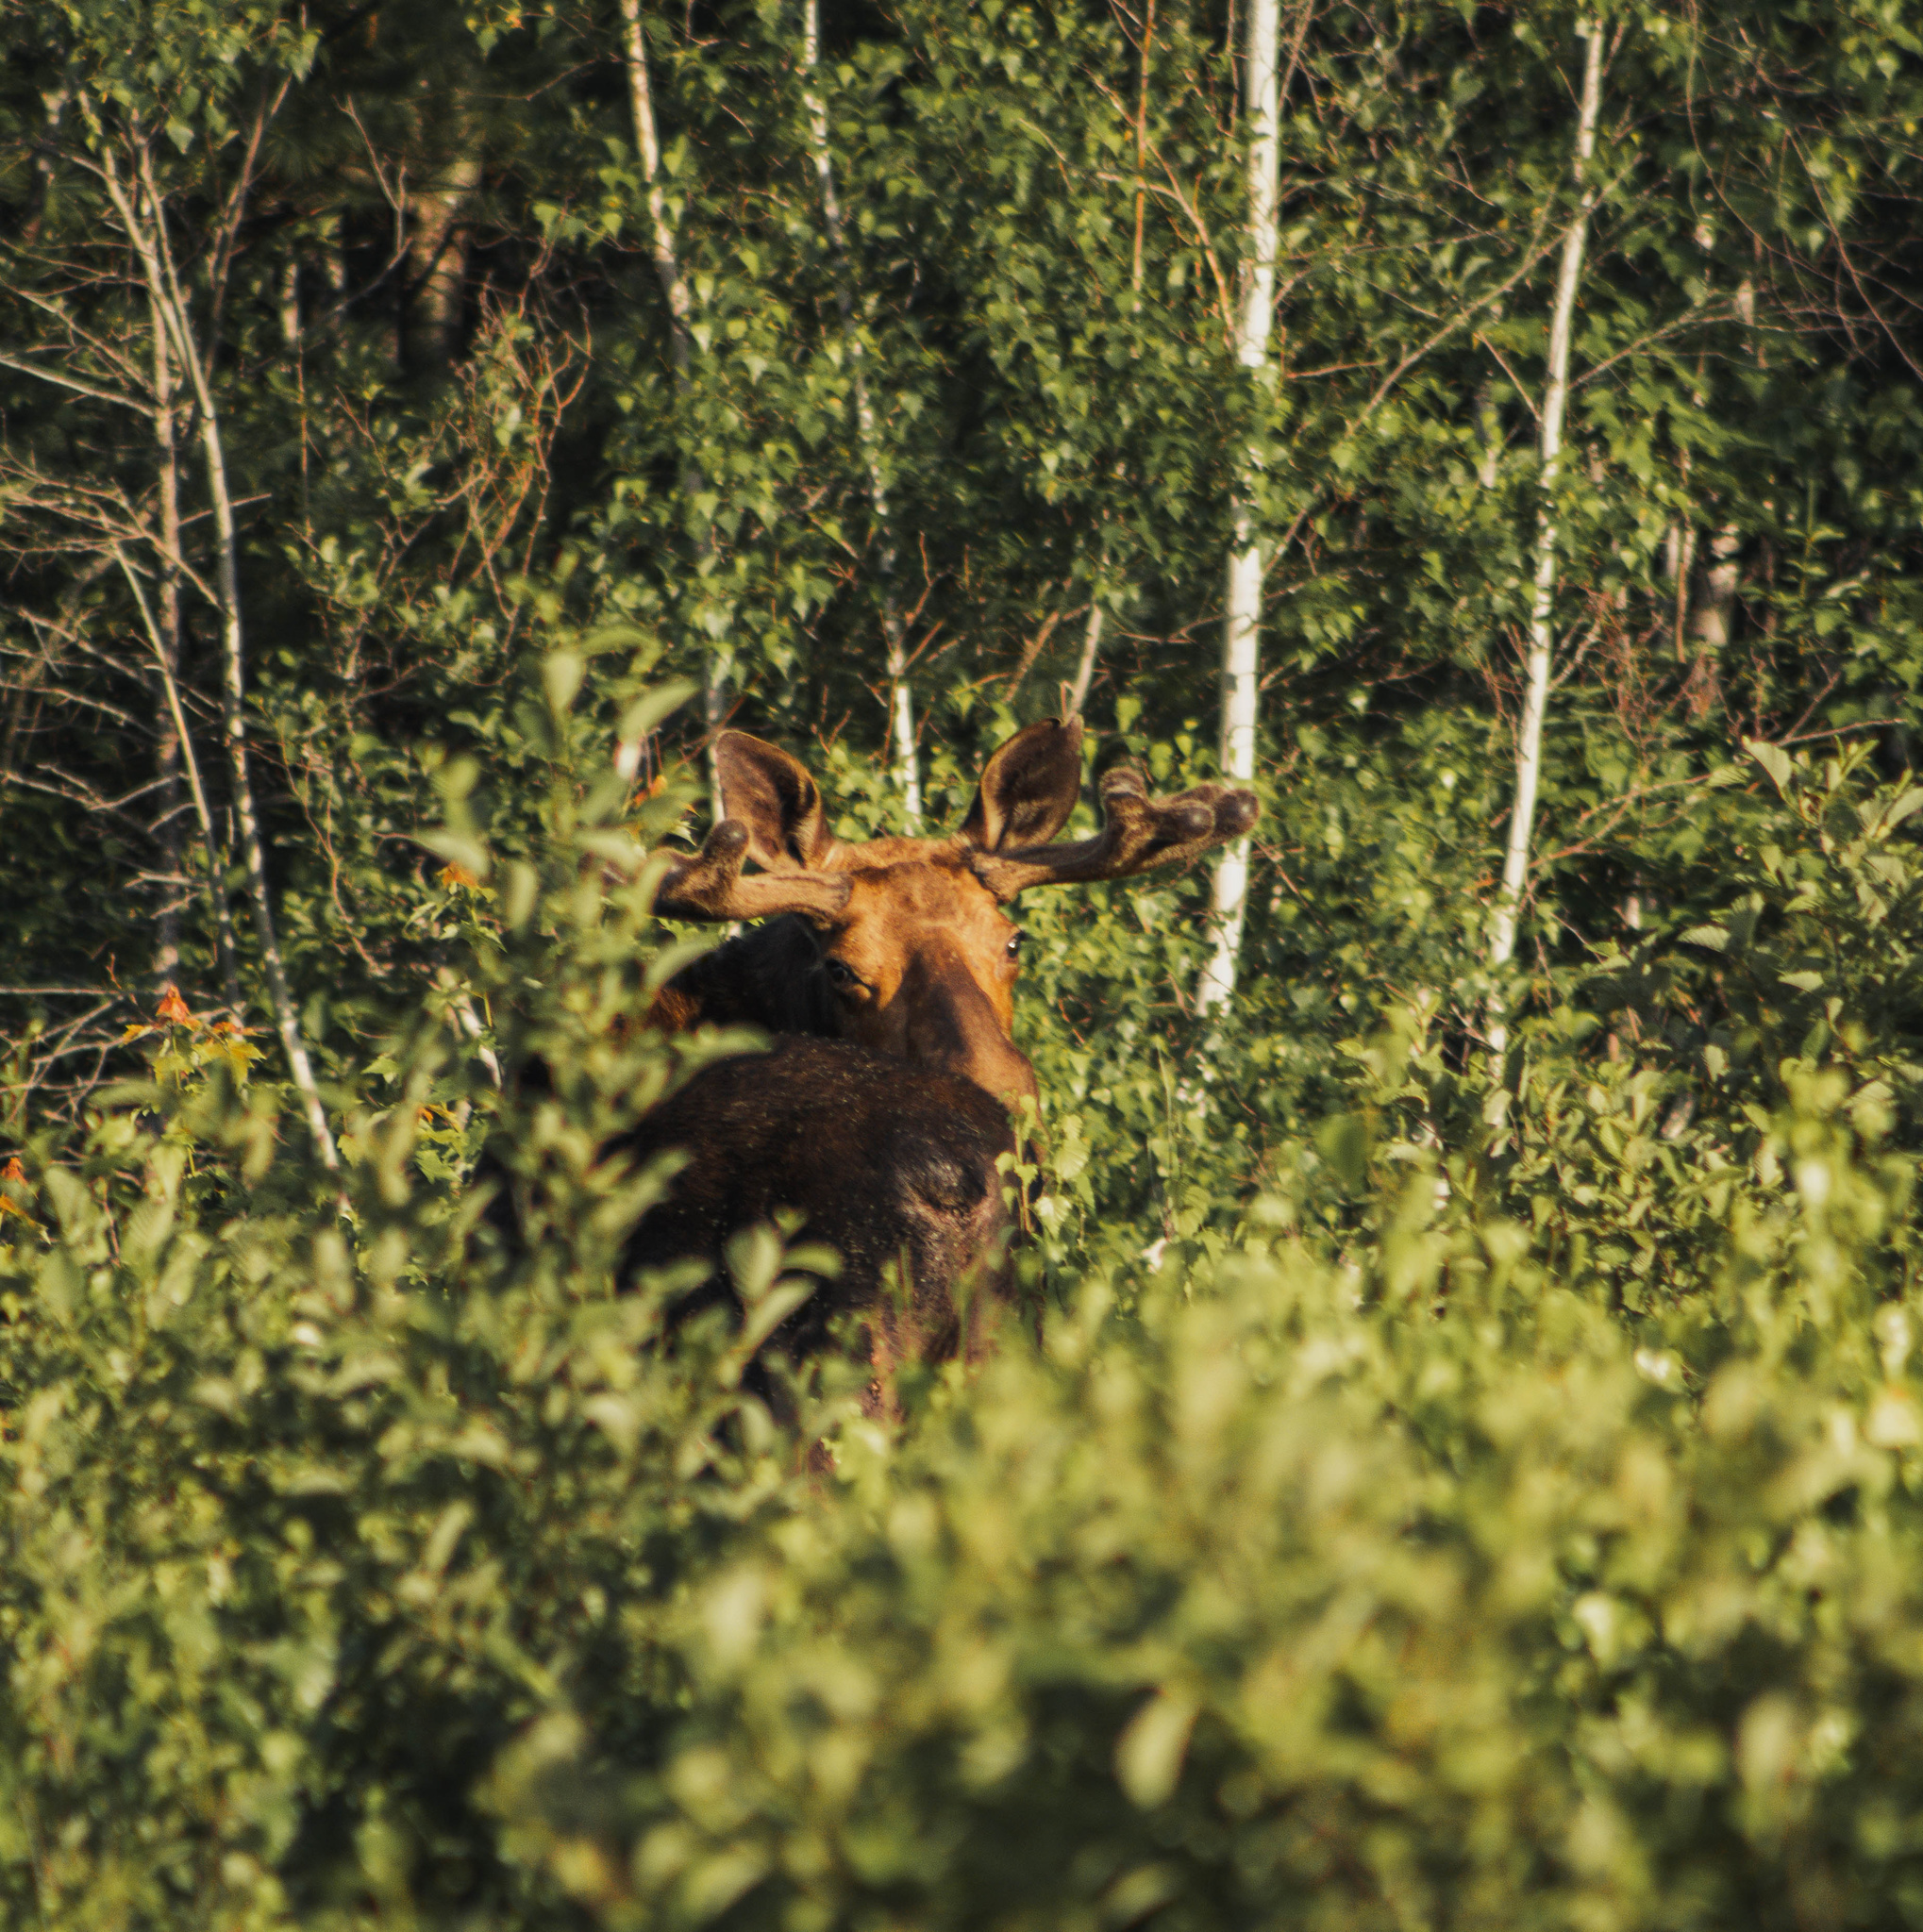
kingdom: Animalia
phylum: Chordata
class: Mammalia
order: Artiodactyla
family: Cervidae
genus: Alces
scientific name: Alces alces
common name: Moose
